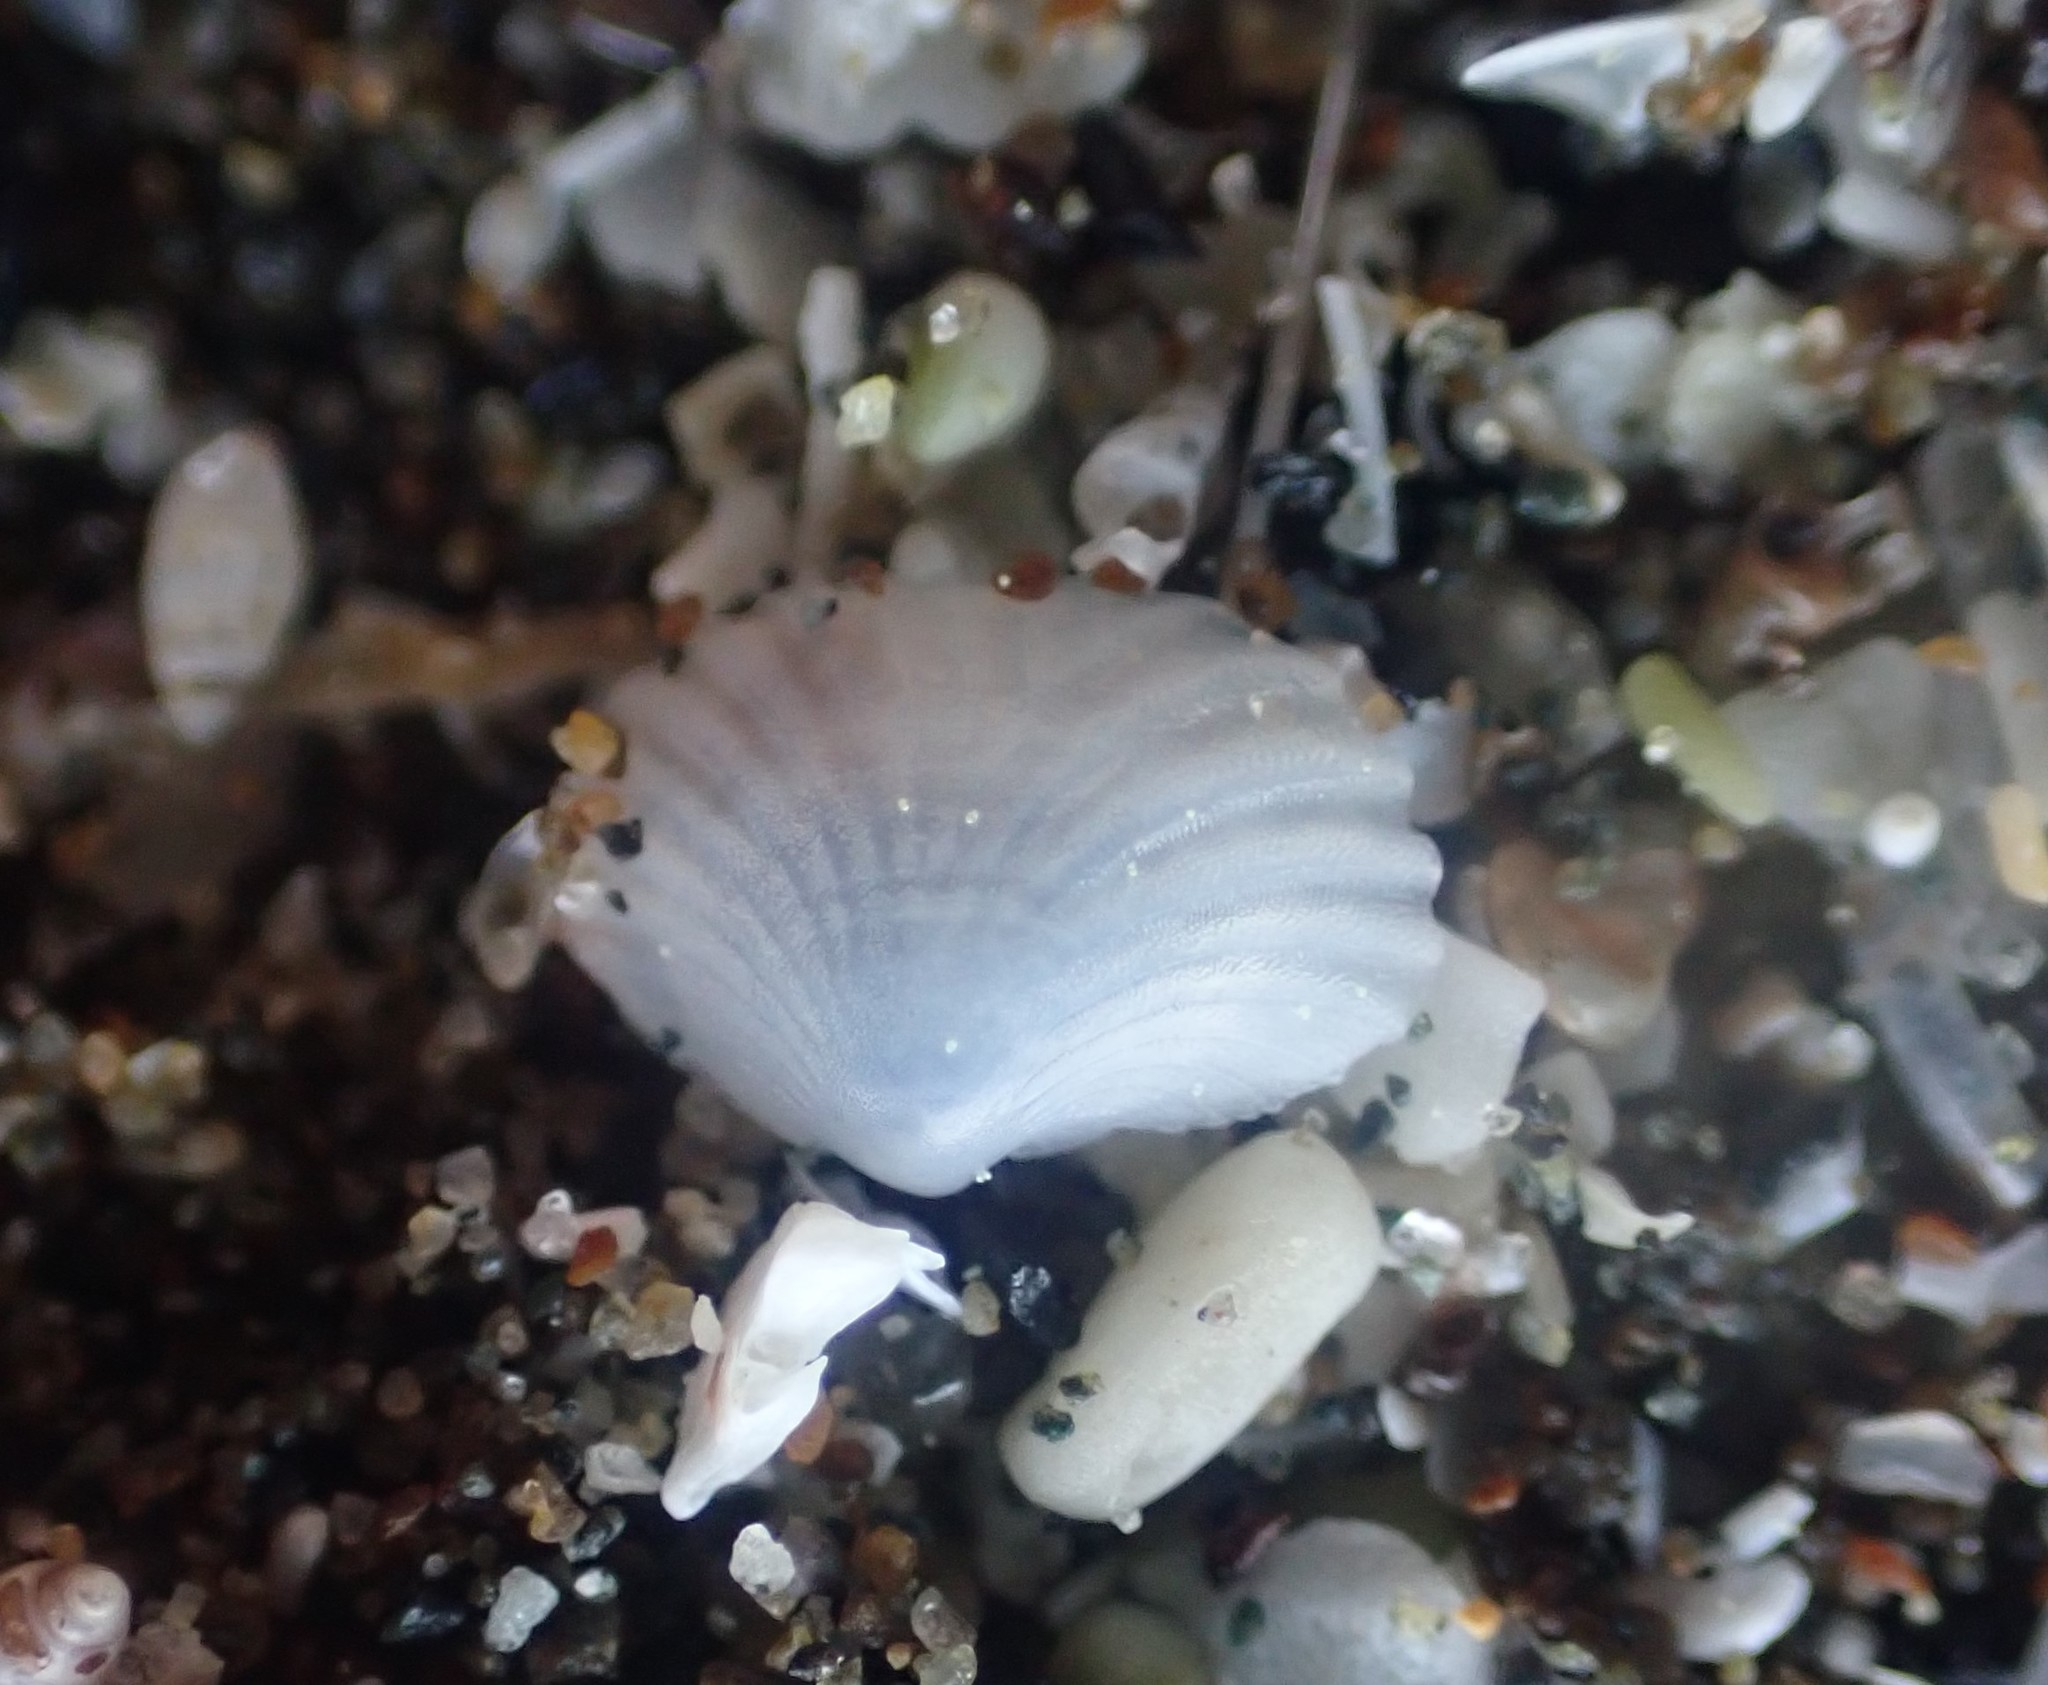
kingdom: Animalia
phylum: Mollusca
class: Bivalvia
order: Galeommatida
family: Lasaeidae
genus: Myllita
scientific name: Myllita stowei
